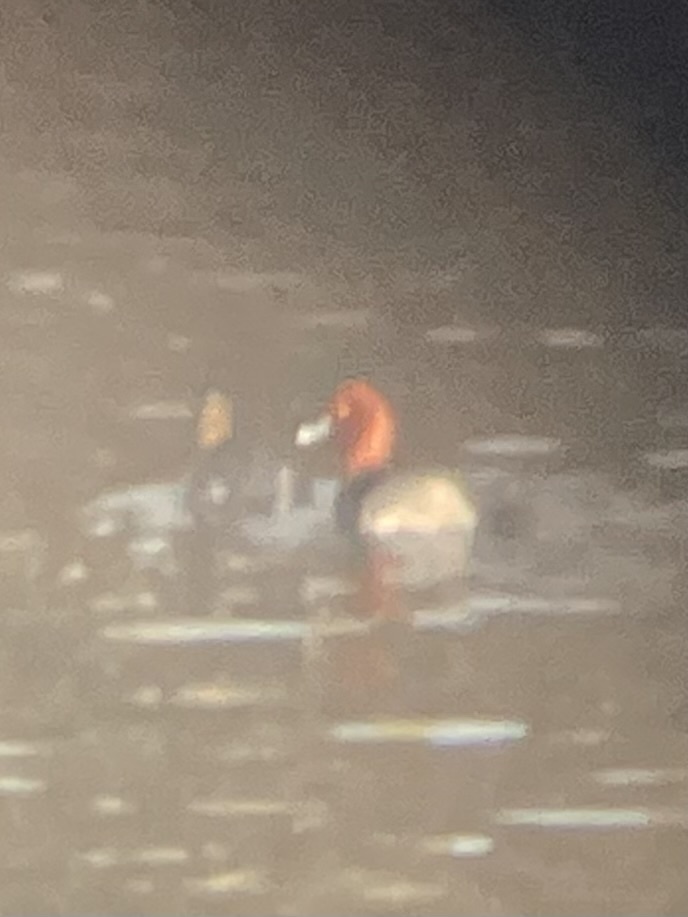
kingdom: Animalia
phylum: Chordata
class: Aves
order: Anseriformes
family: Anatidae
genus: Aythya
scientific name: Aythya americana
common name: Redhead
